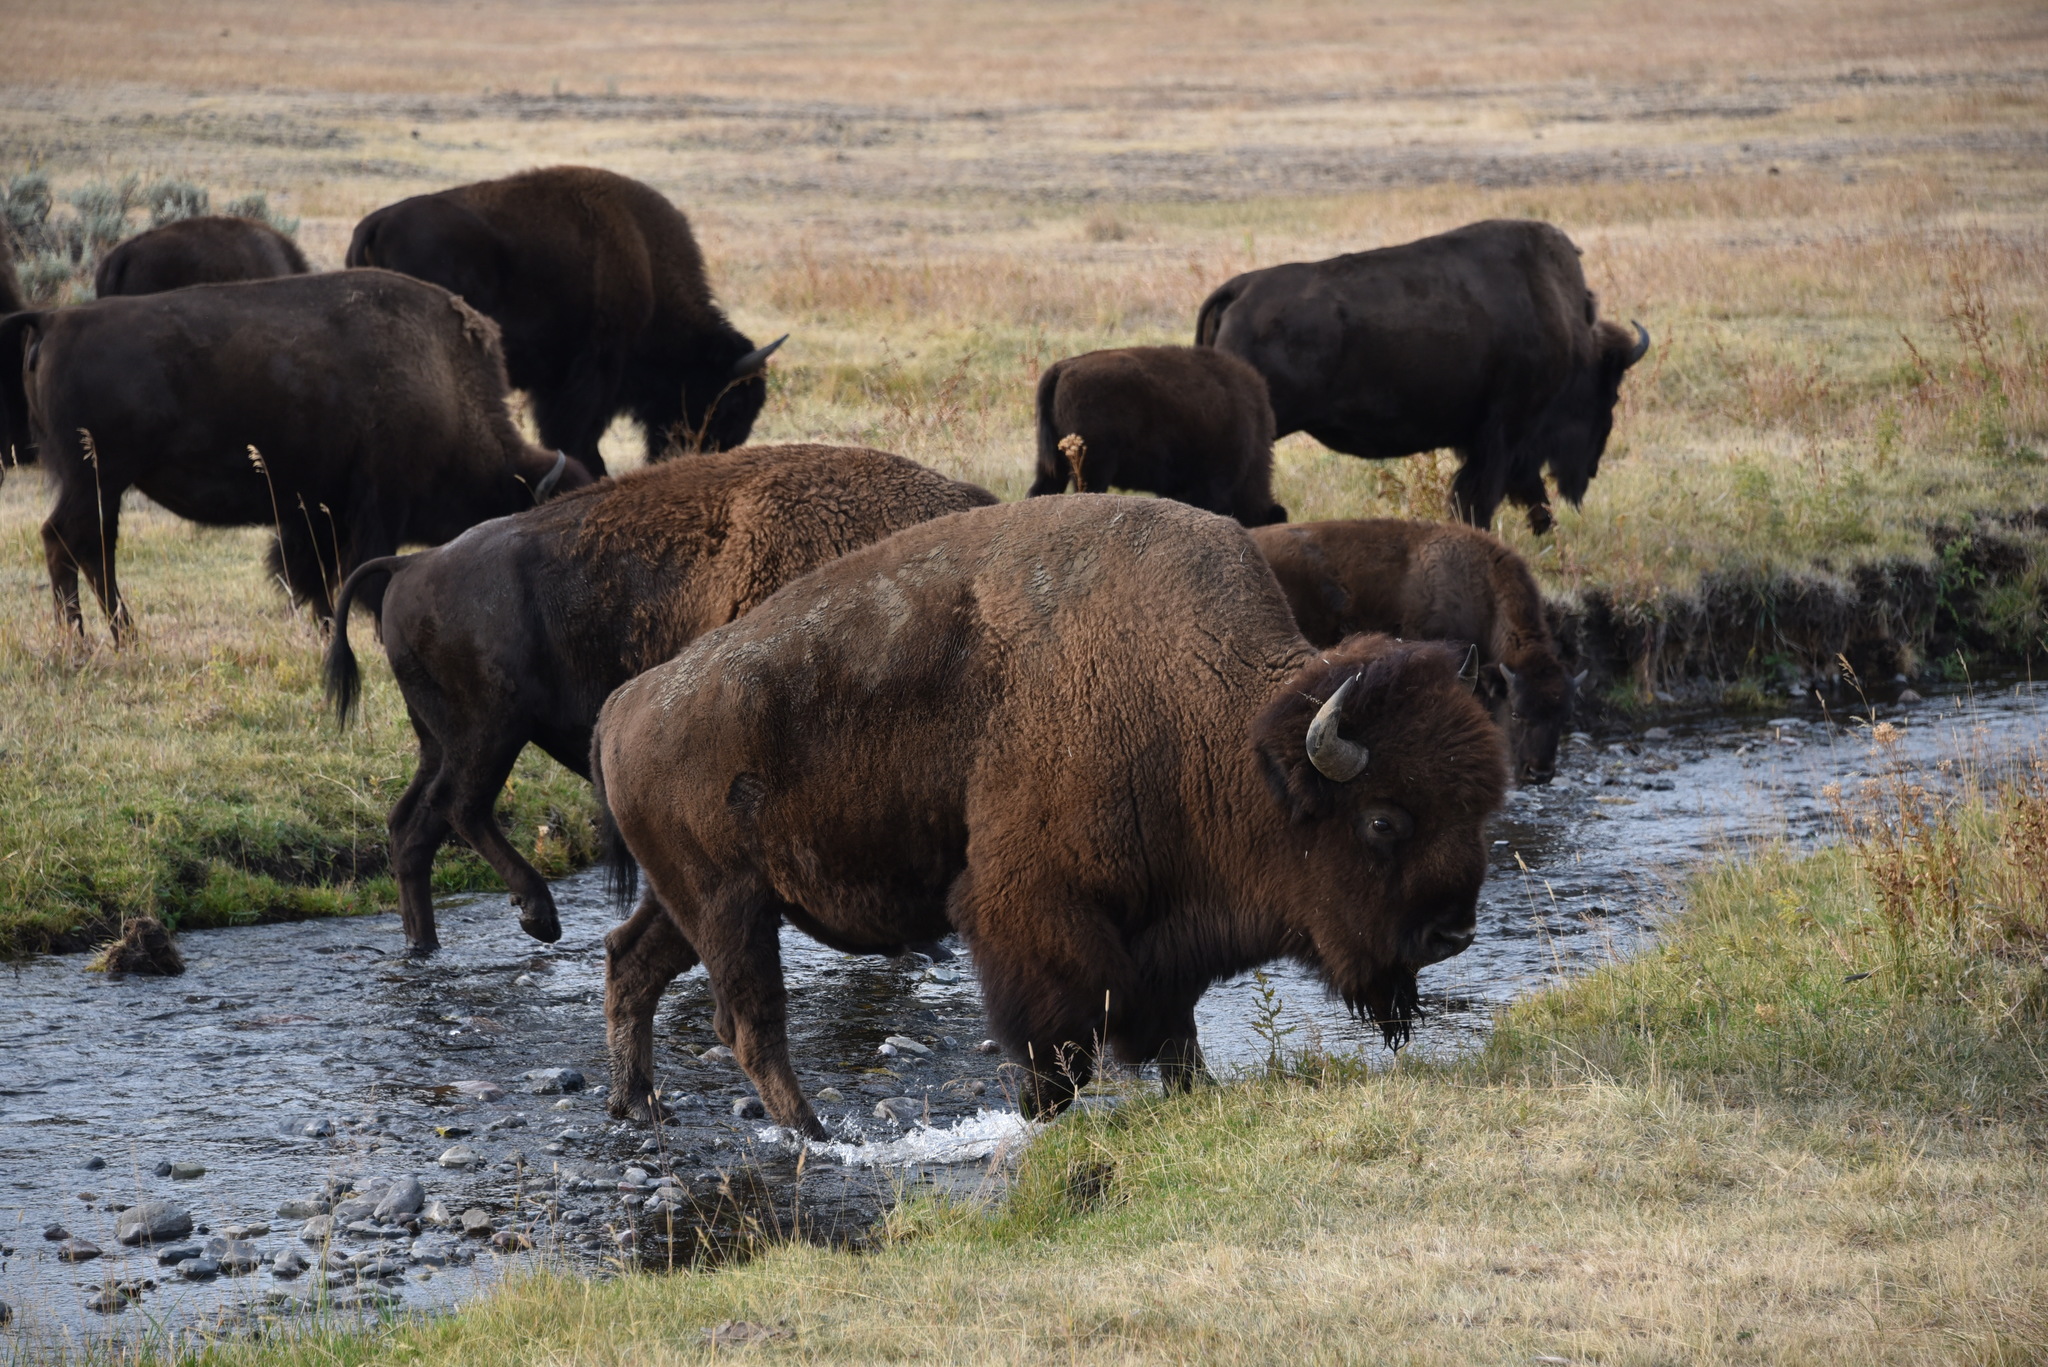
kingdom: Animalia
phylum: Chordata
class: Mammalia
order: Artiodactyla
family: Bovidae
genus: Bison
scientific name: Bison bison
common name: American bison
